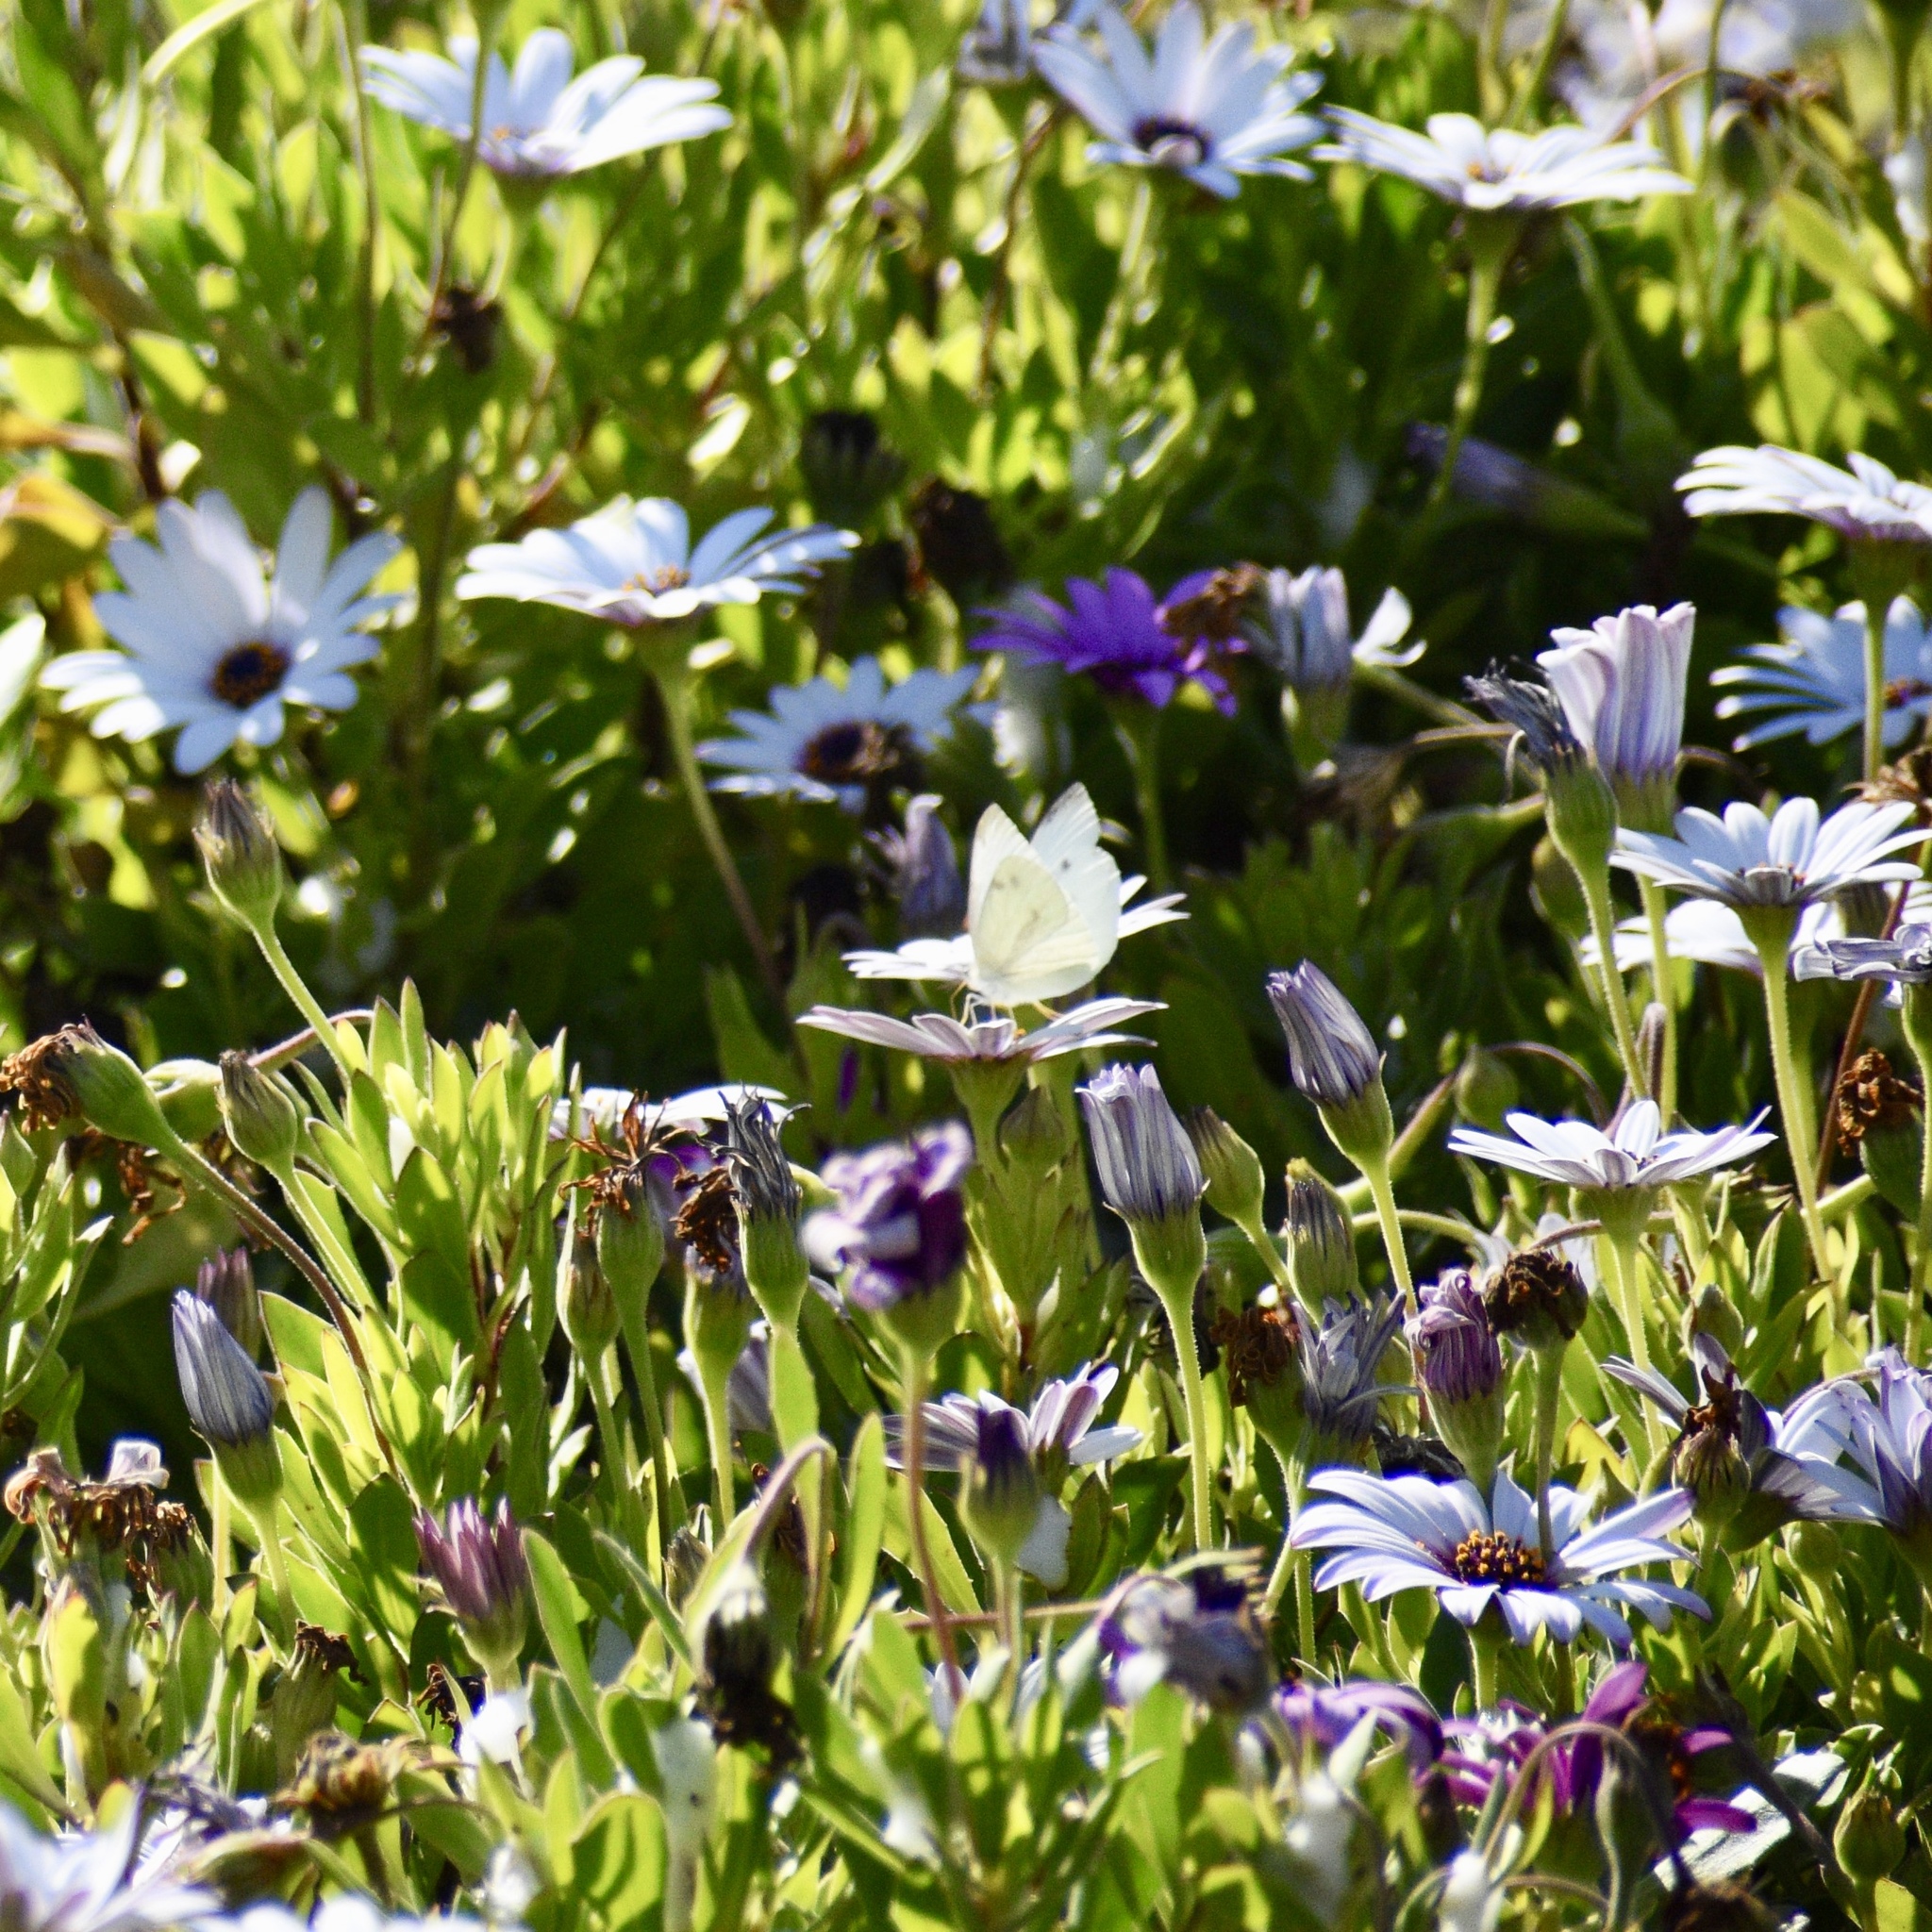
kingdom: Animalia
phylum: Arthropoda
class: Insecta
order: Lepidoptera
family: Pieridae
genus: Pieris
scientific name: Pieris rapae
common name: Small white
